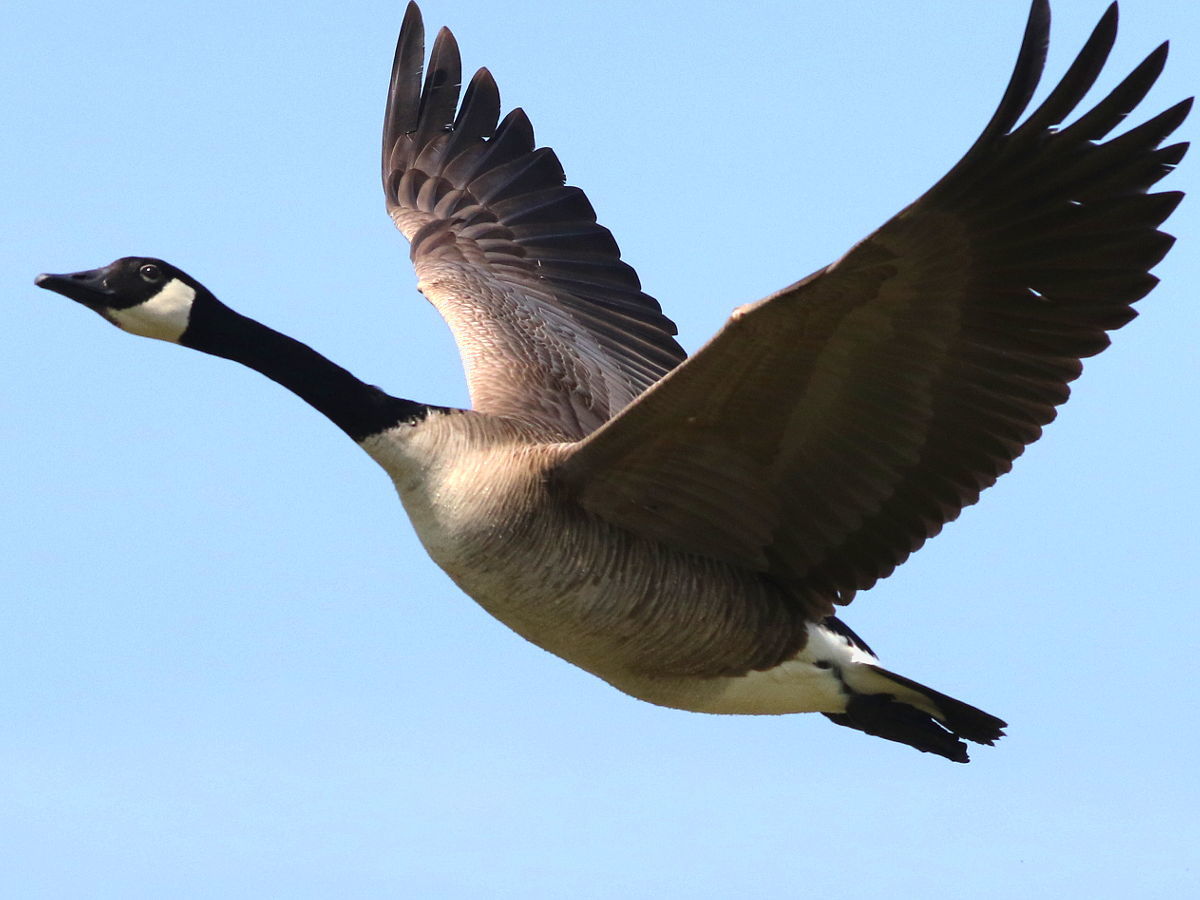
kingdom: Animalia
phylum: Chordata
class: Aves
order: Anseriformes
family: Anatidae
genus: Branta
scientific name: Branta canadensis
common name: Canada goose
